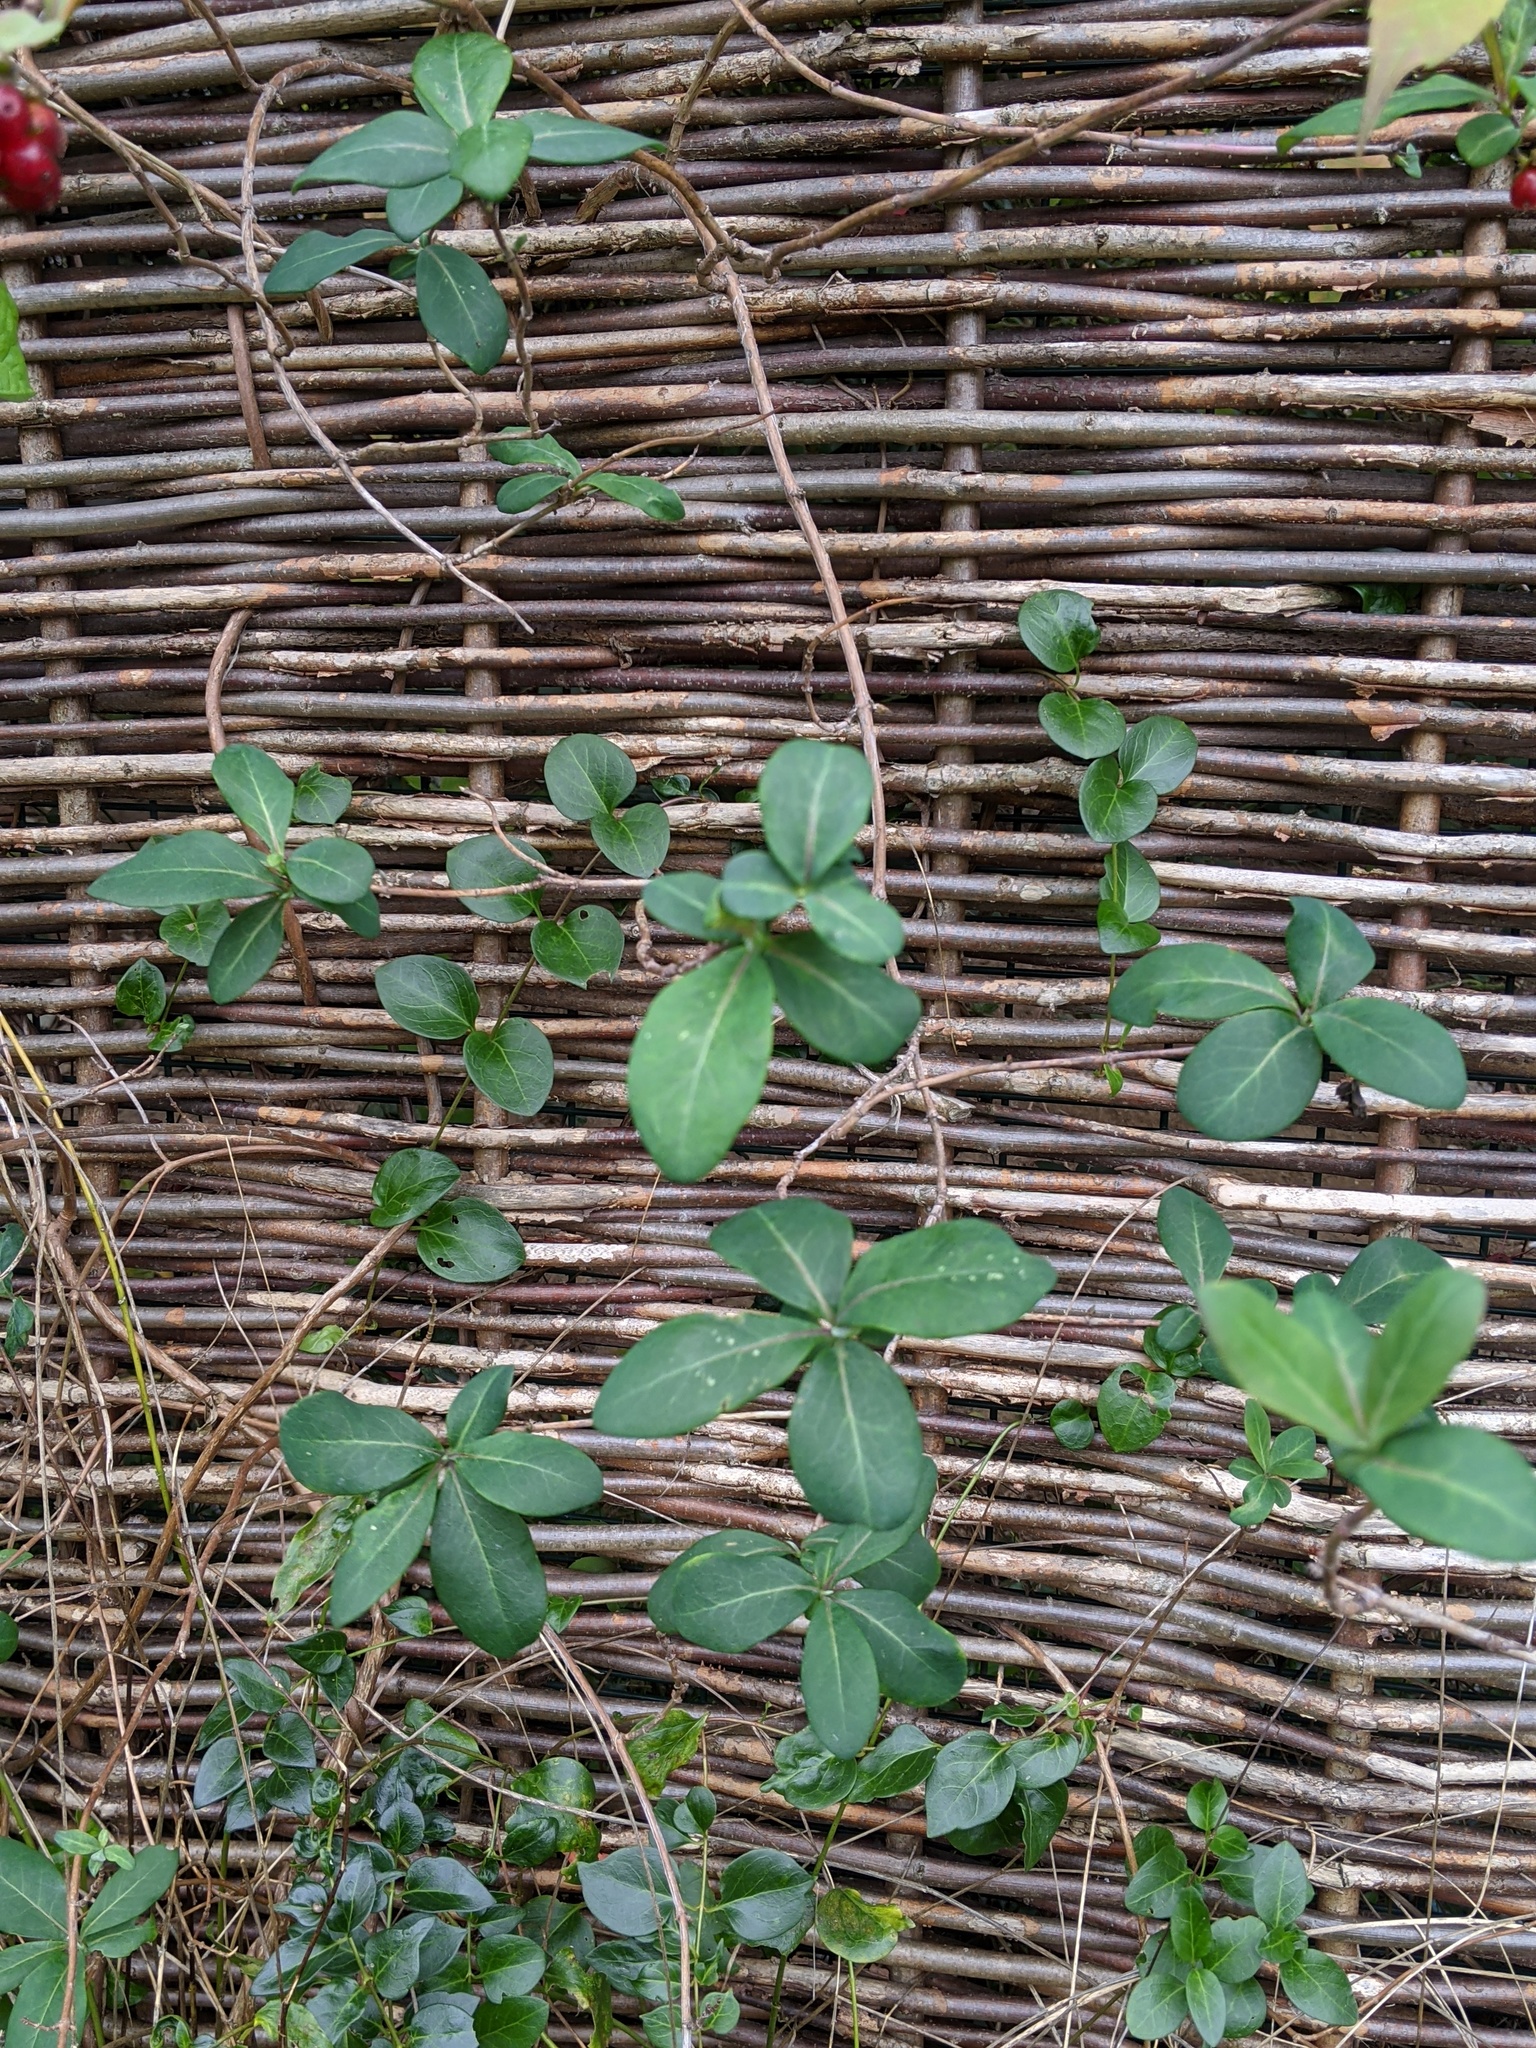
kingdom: Plantae
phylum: Tracheophyta
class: Magnoliopsida
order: Dipsacales
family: Caprifoliaceae
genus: Lonicera
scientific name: Lonicera periclymenum
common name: European honeysuckle
